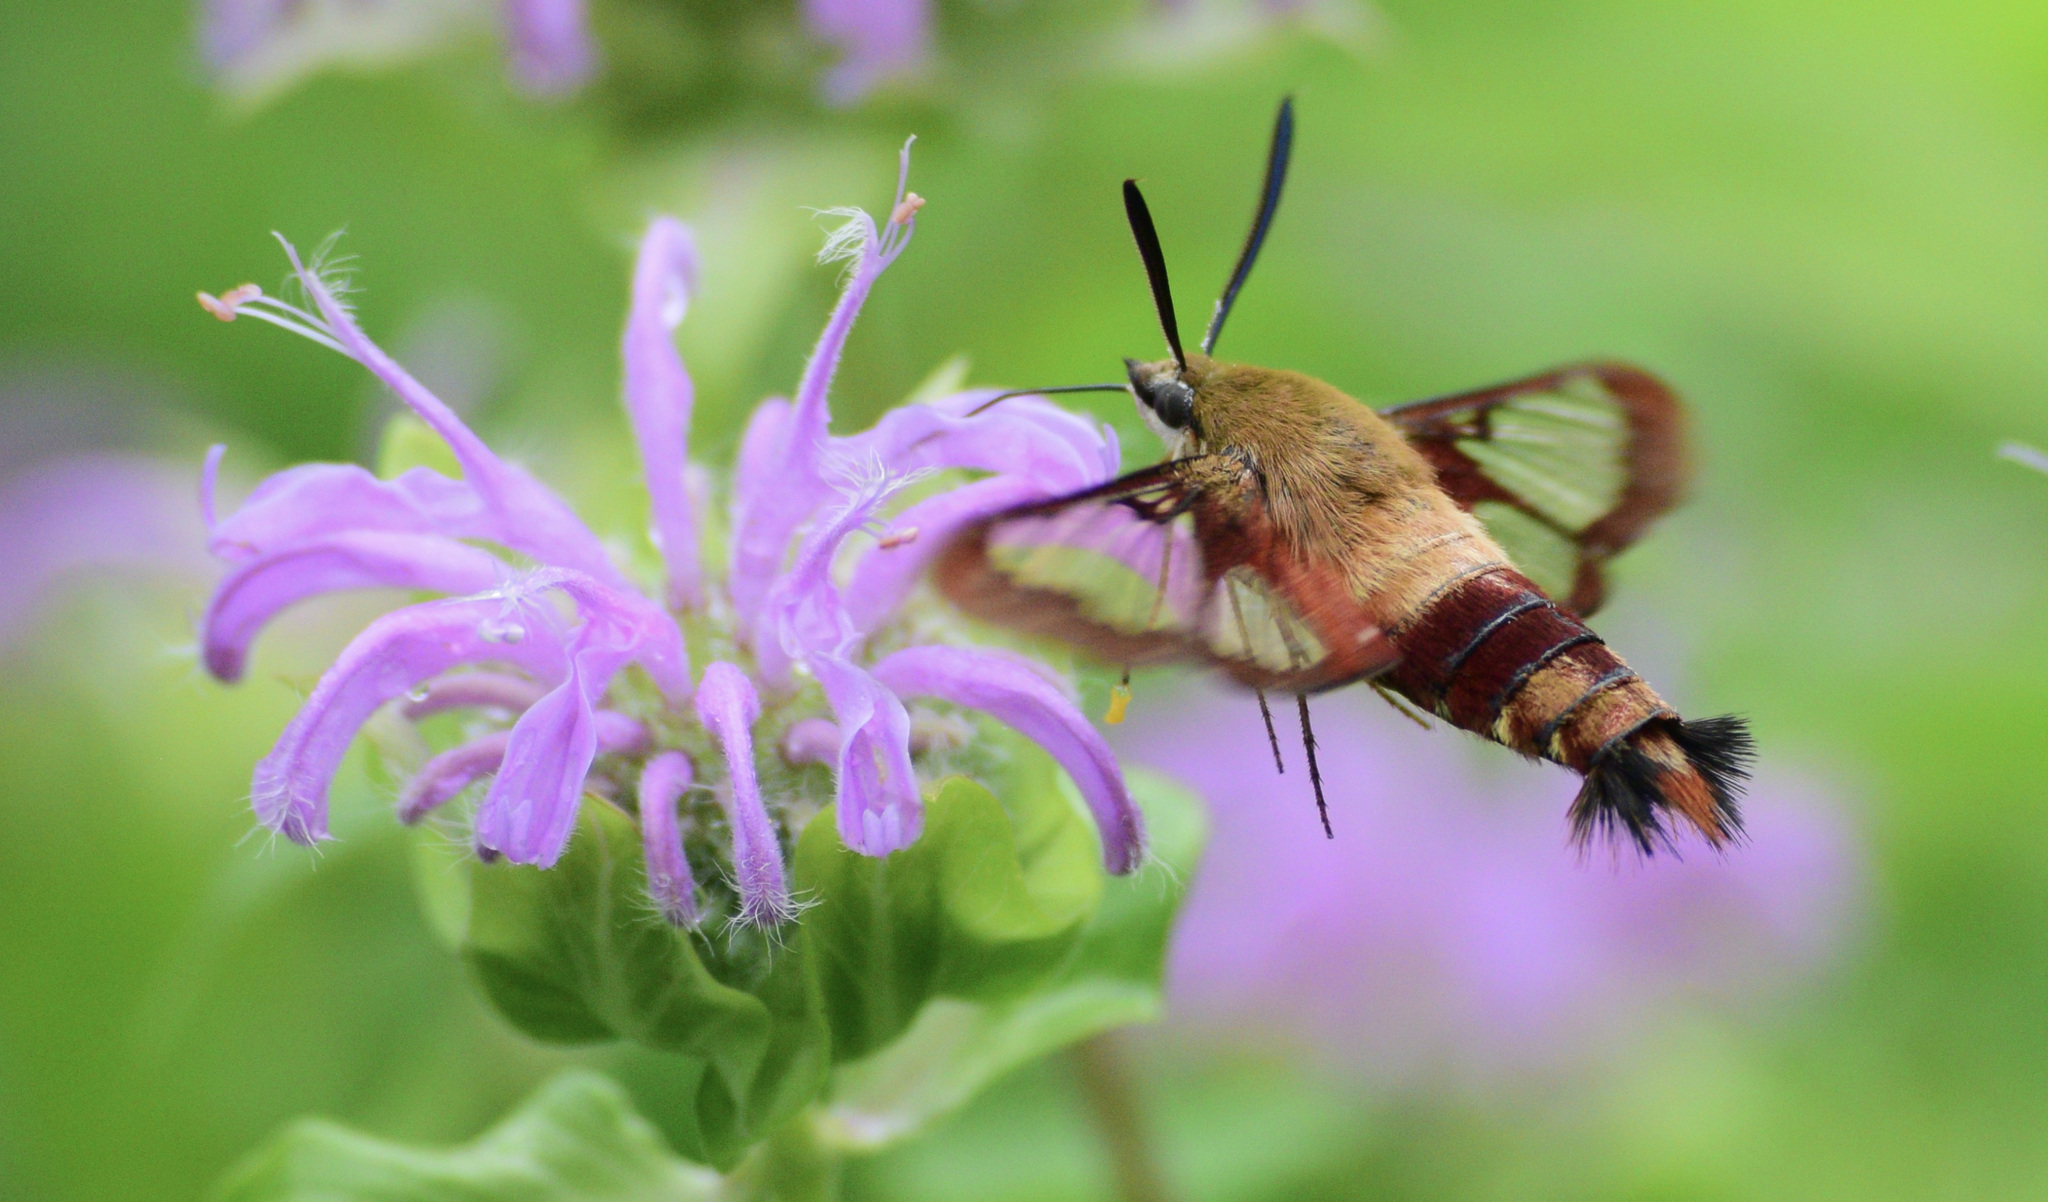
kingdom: Animalia
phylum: Arthropoda
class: Insecta
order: Lepidoptera
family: Sphingidae
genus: Hemaris
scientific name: Hemaris thysbe
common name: Common clear-wing
